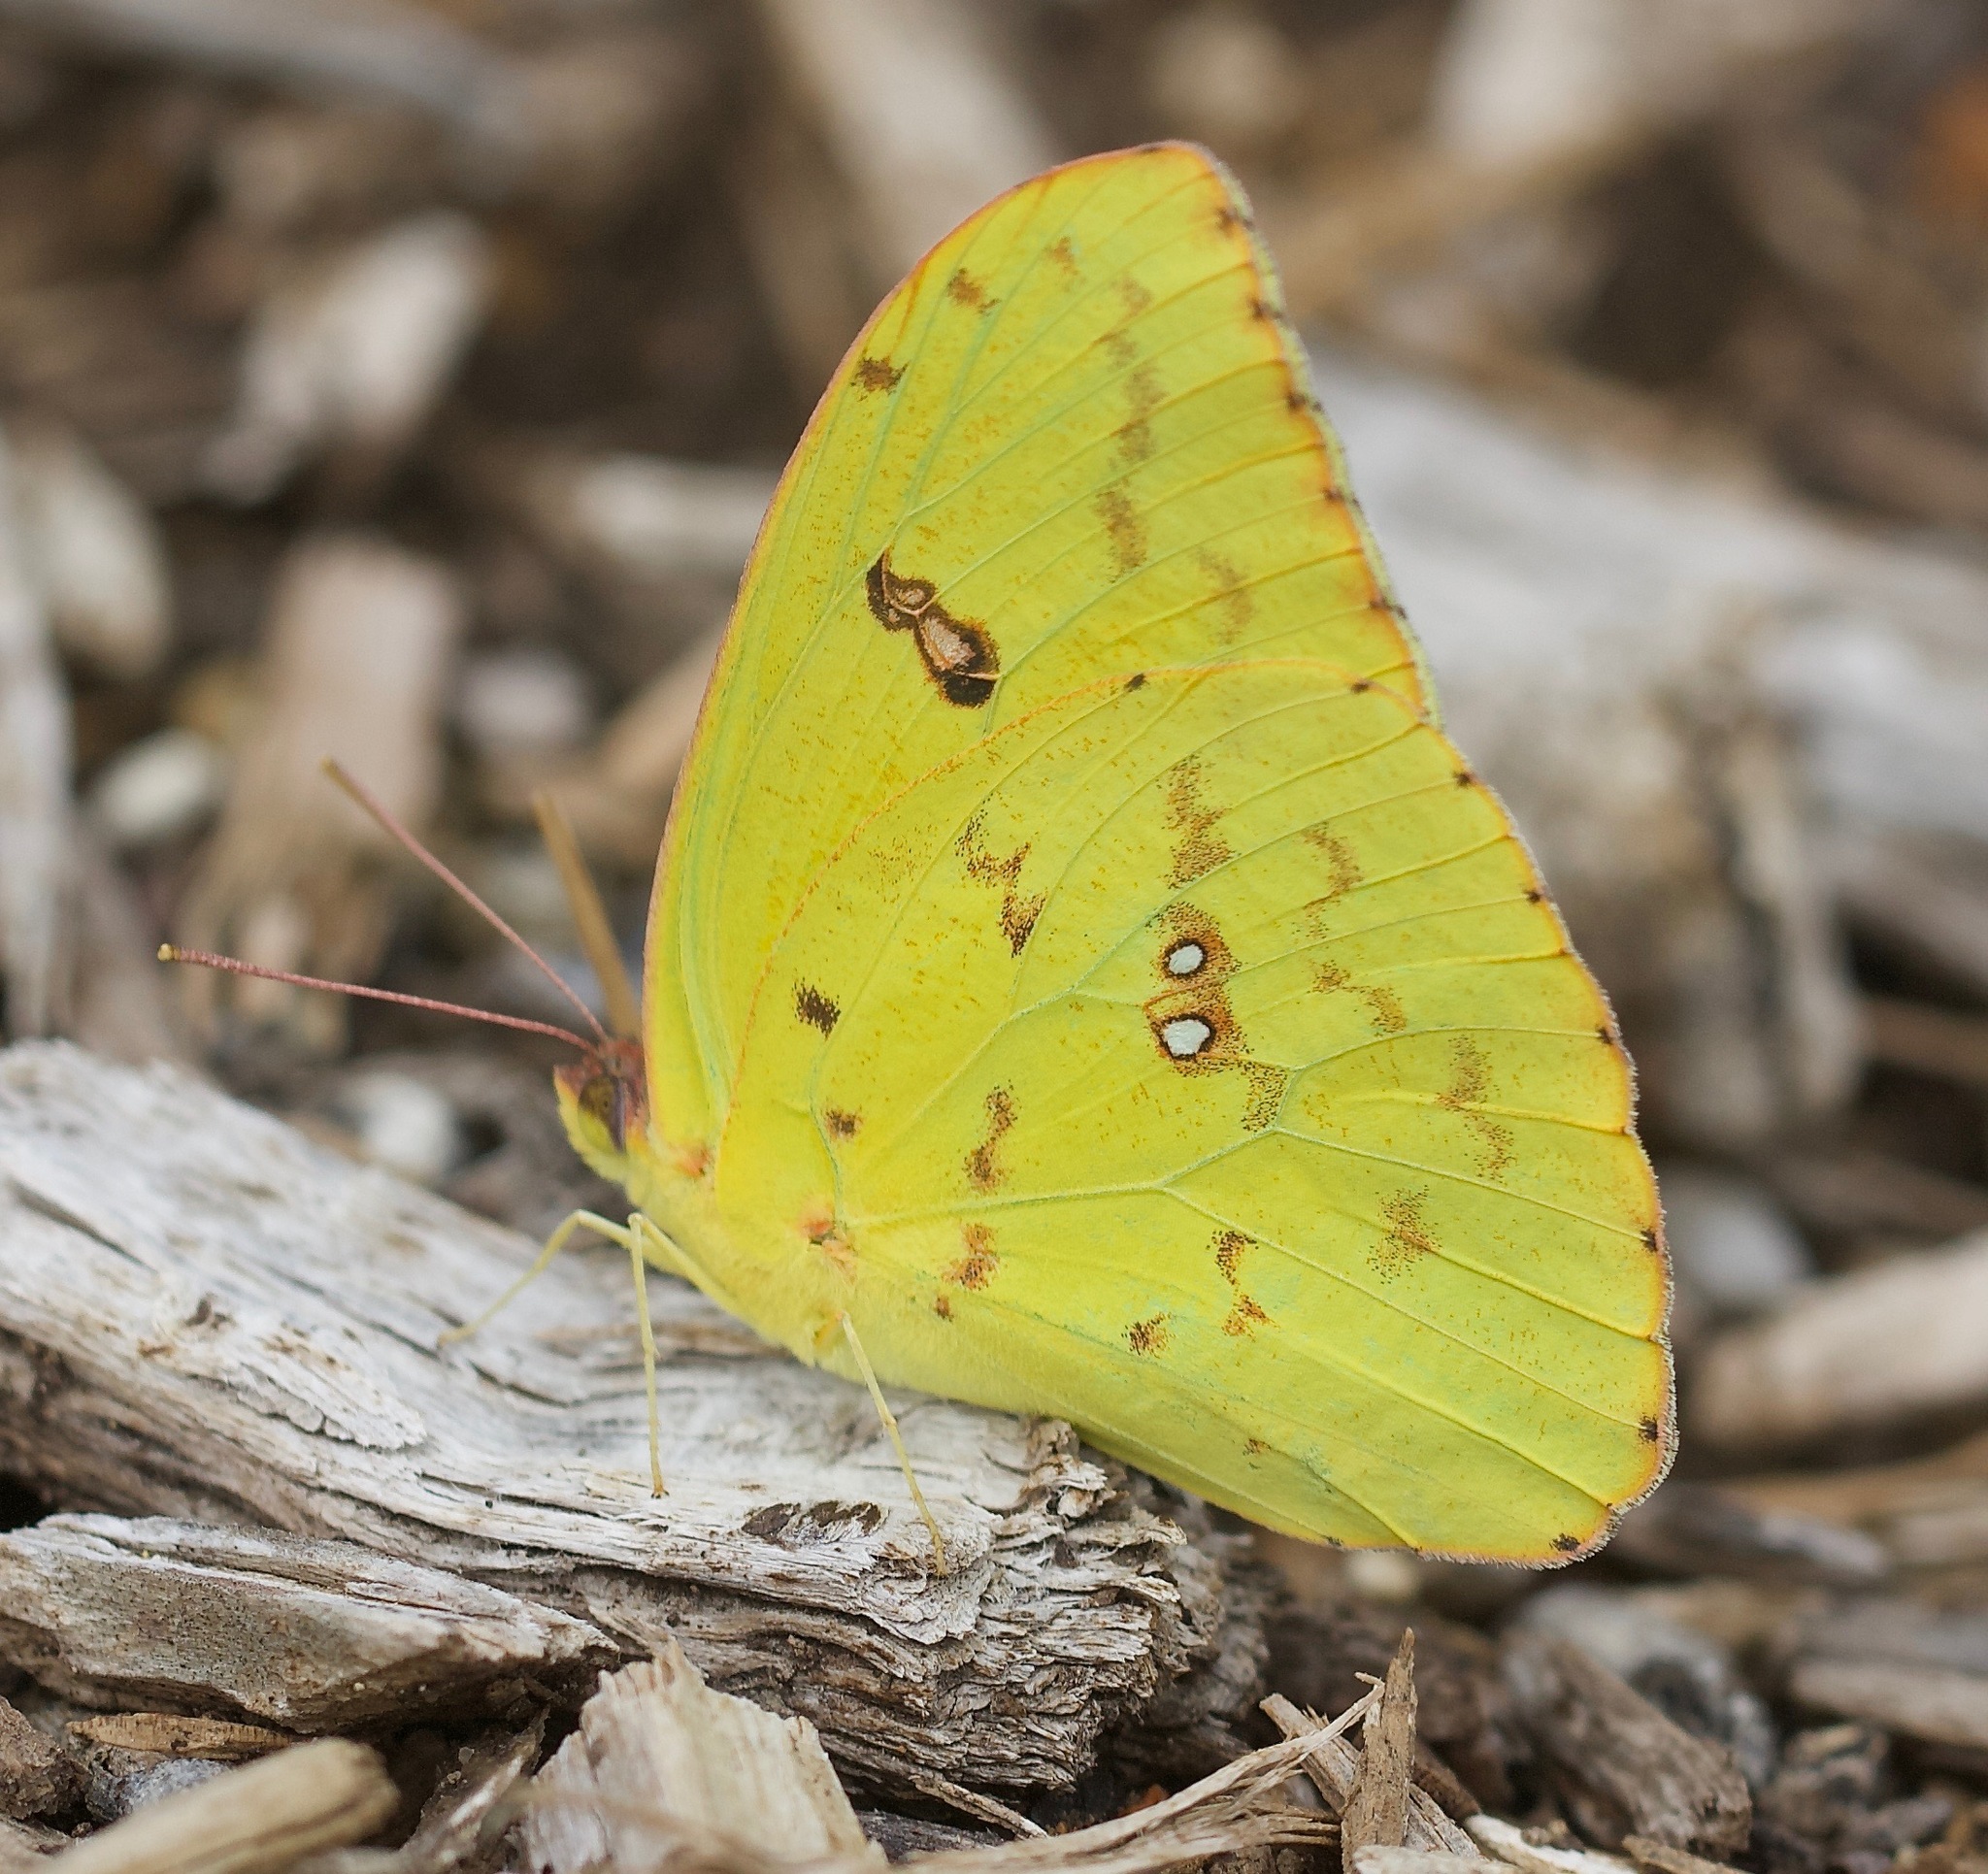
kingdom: Animalia
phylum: Arthropoda
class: Insecta
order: Lepidoptera
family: Pieridae
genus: Phoebis
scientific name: Phoebis sennae
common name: Cloudless sulphur
